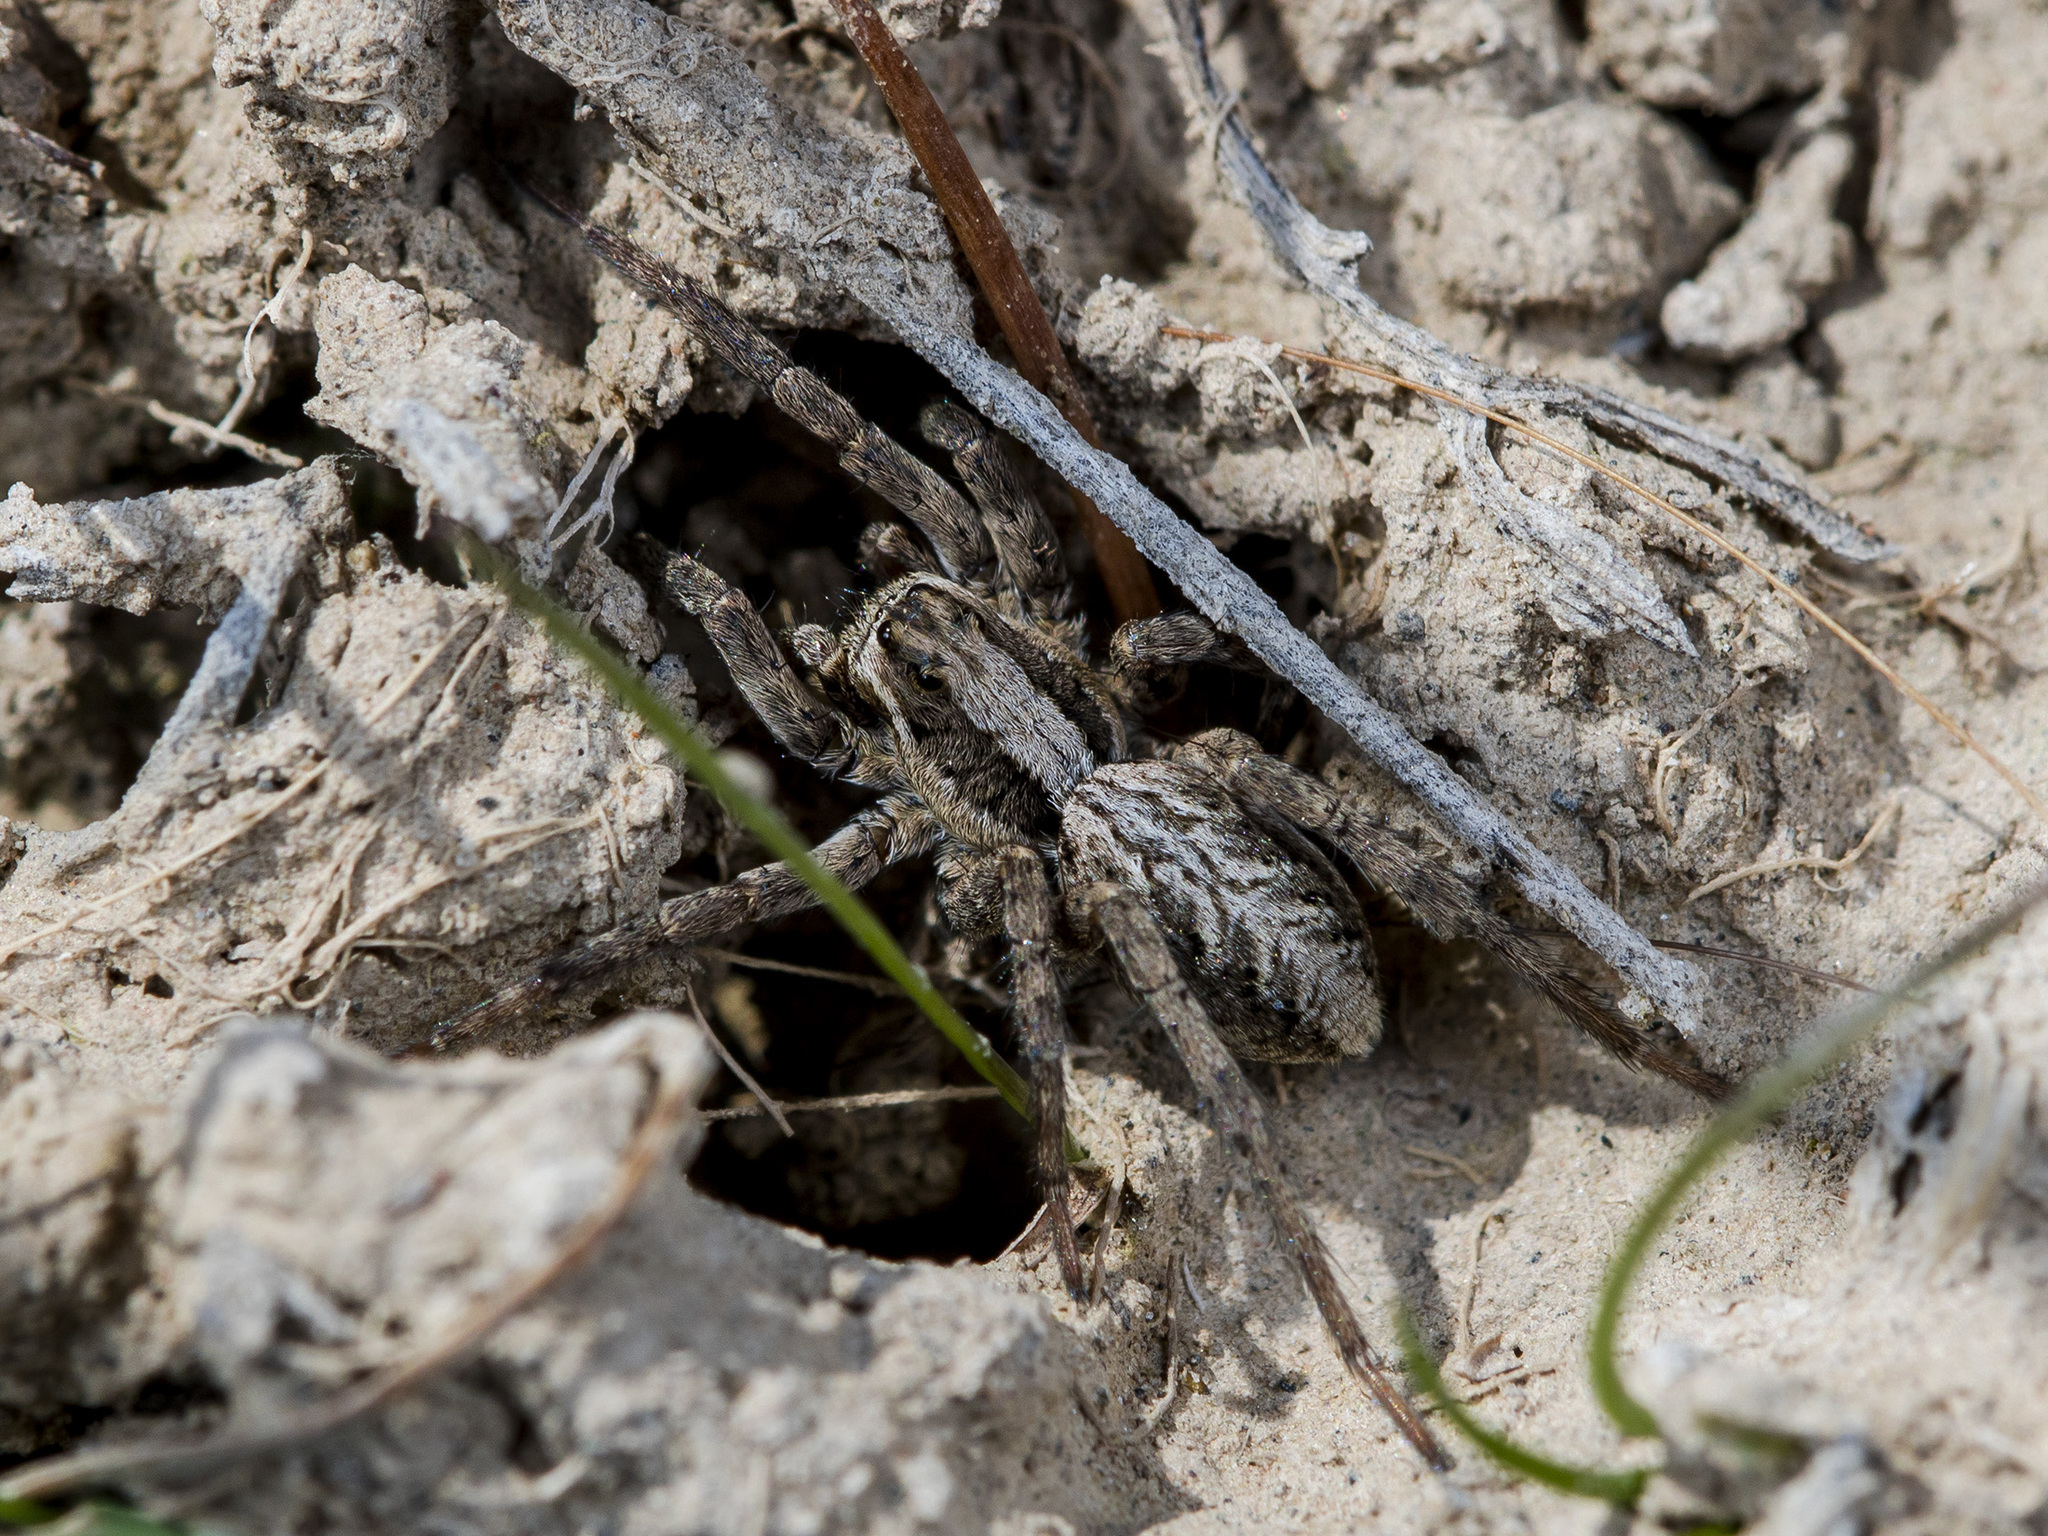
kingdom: Animalia
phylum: Arthropoda
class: Arachnida
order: Araneae
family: Lycosidae
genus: Alopecosa
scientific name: Alopecosa cursor
